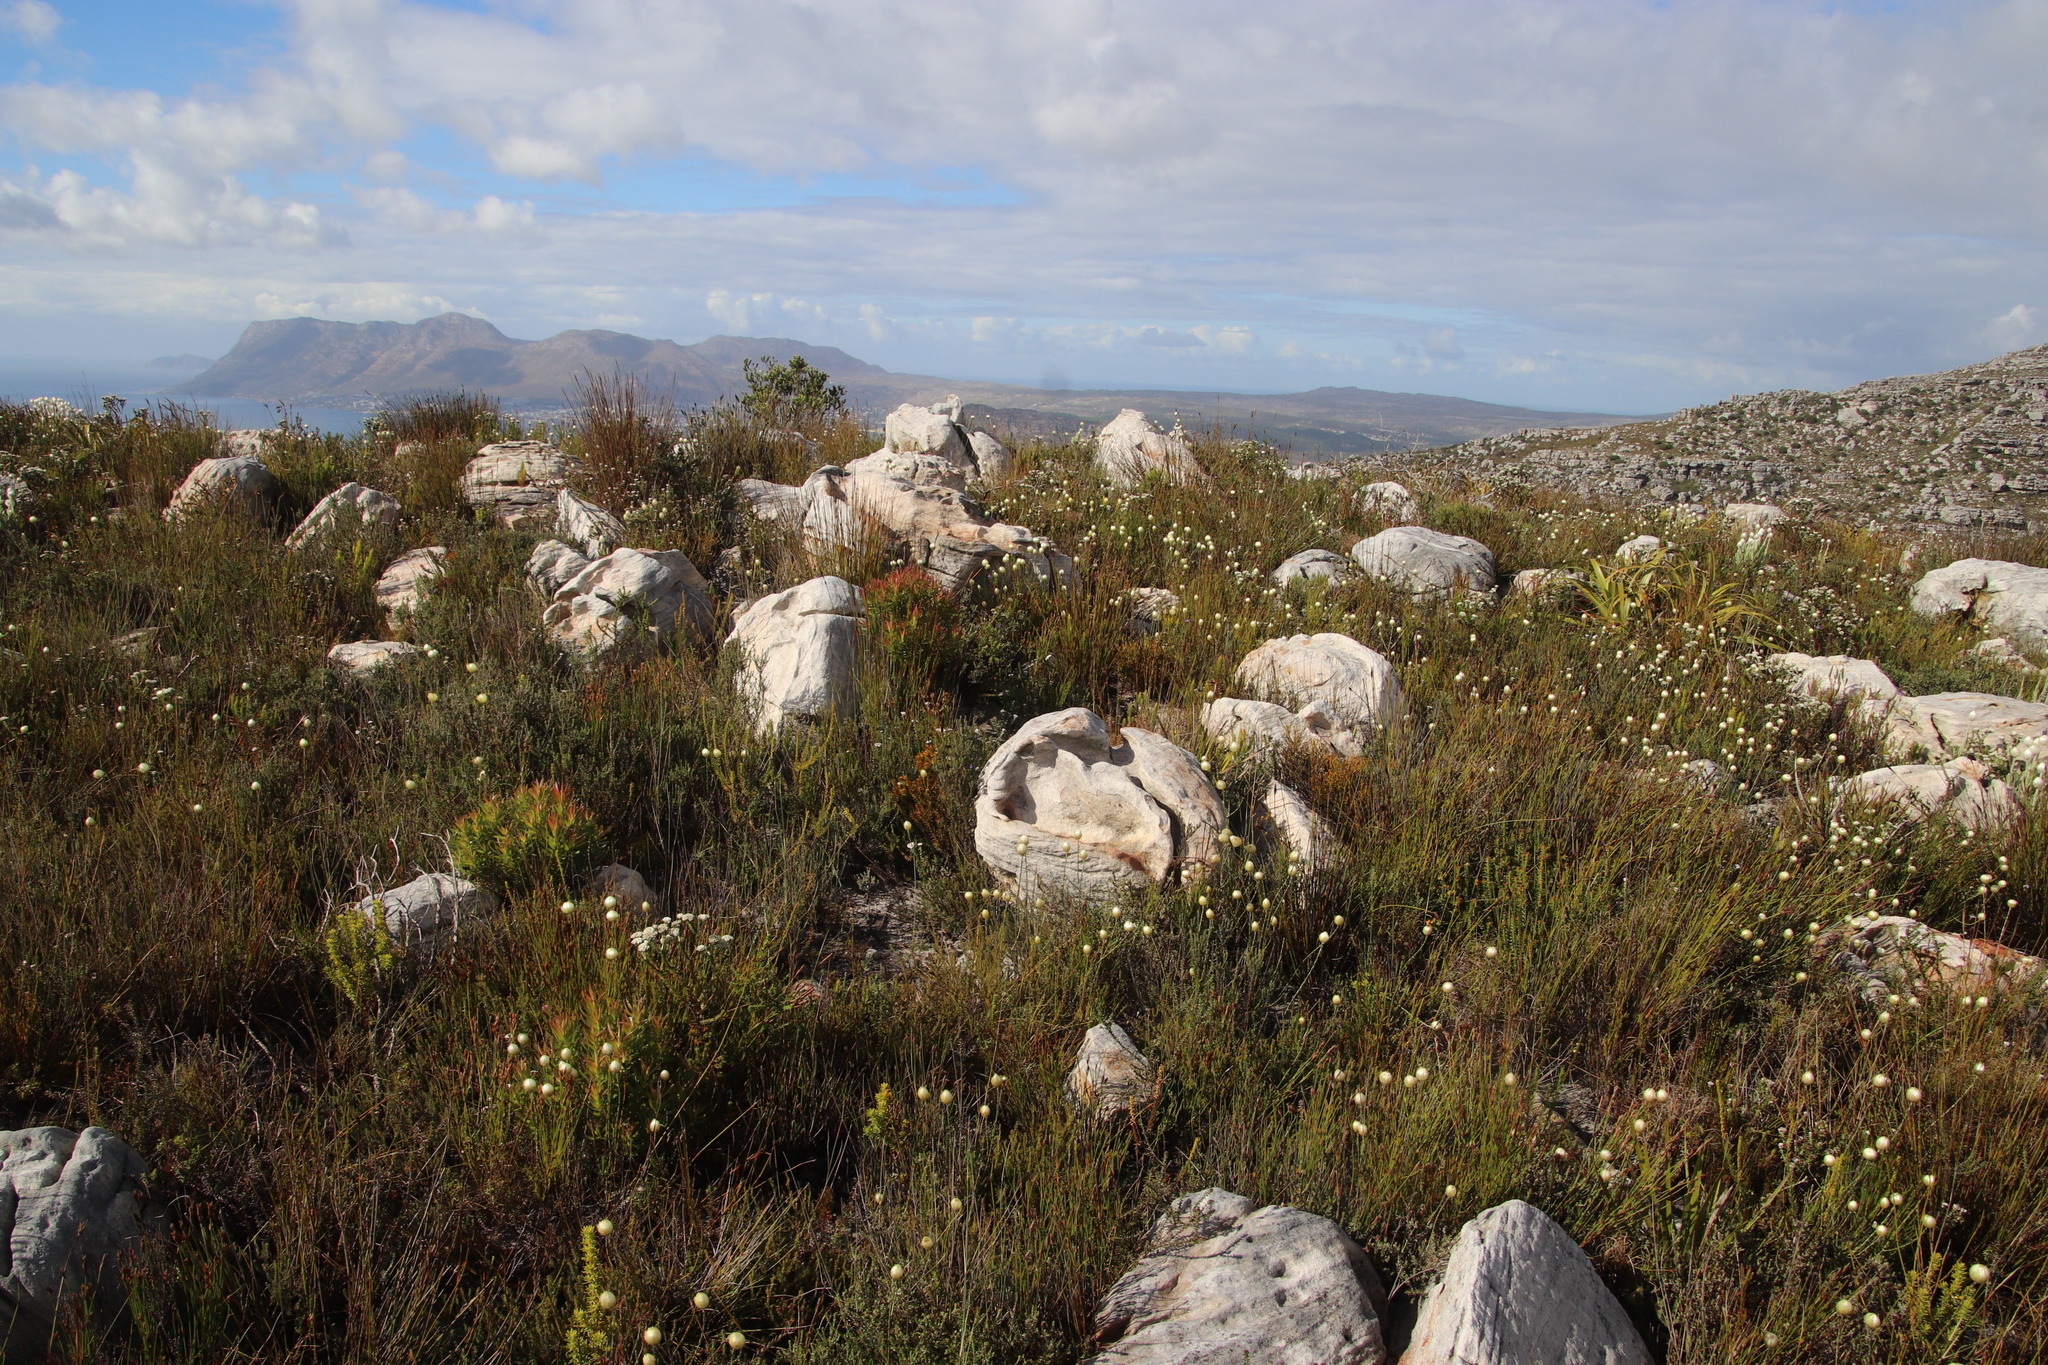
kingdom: Plantae
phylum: Tracheophyta
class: Magnoliopsida
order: Asterales
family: Asteraceae
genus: Edmondia
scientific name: Edmondia sesamoides
